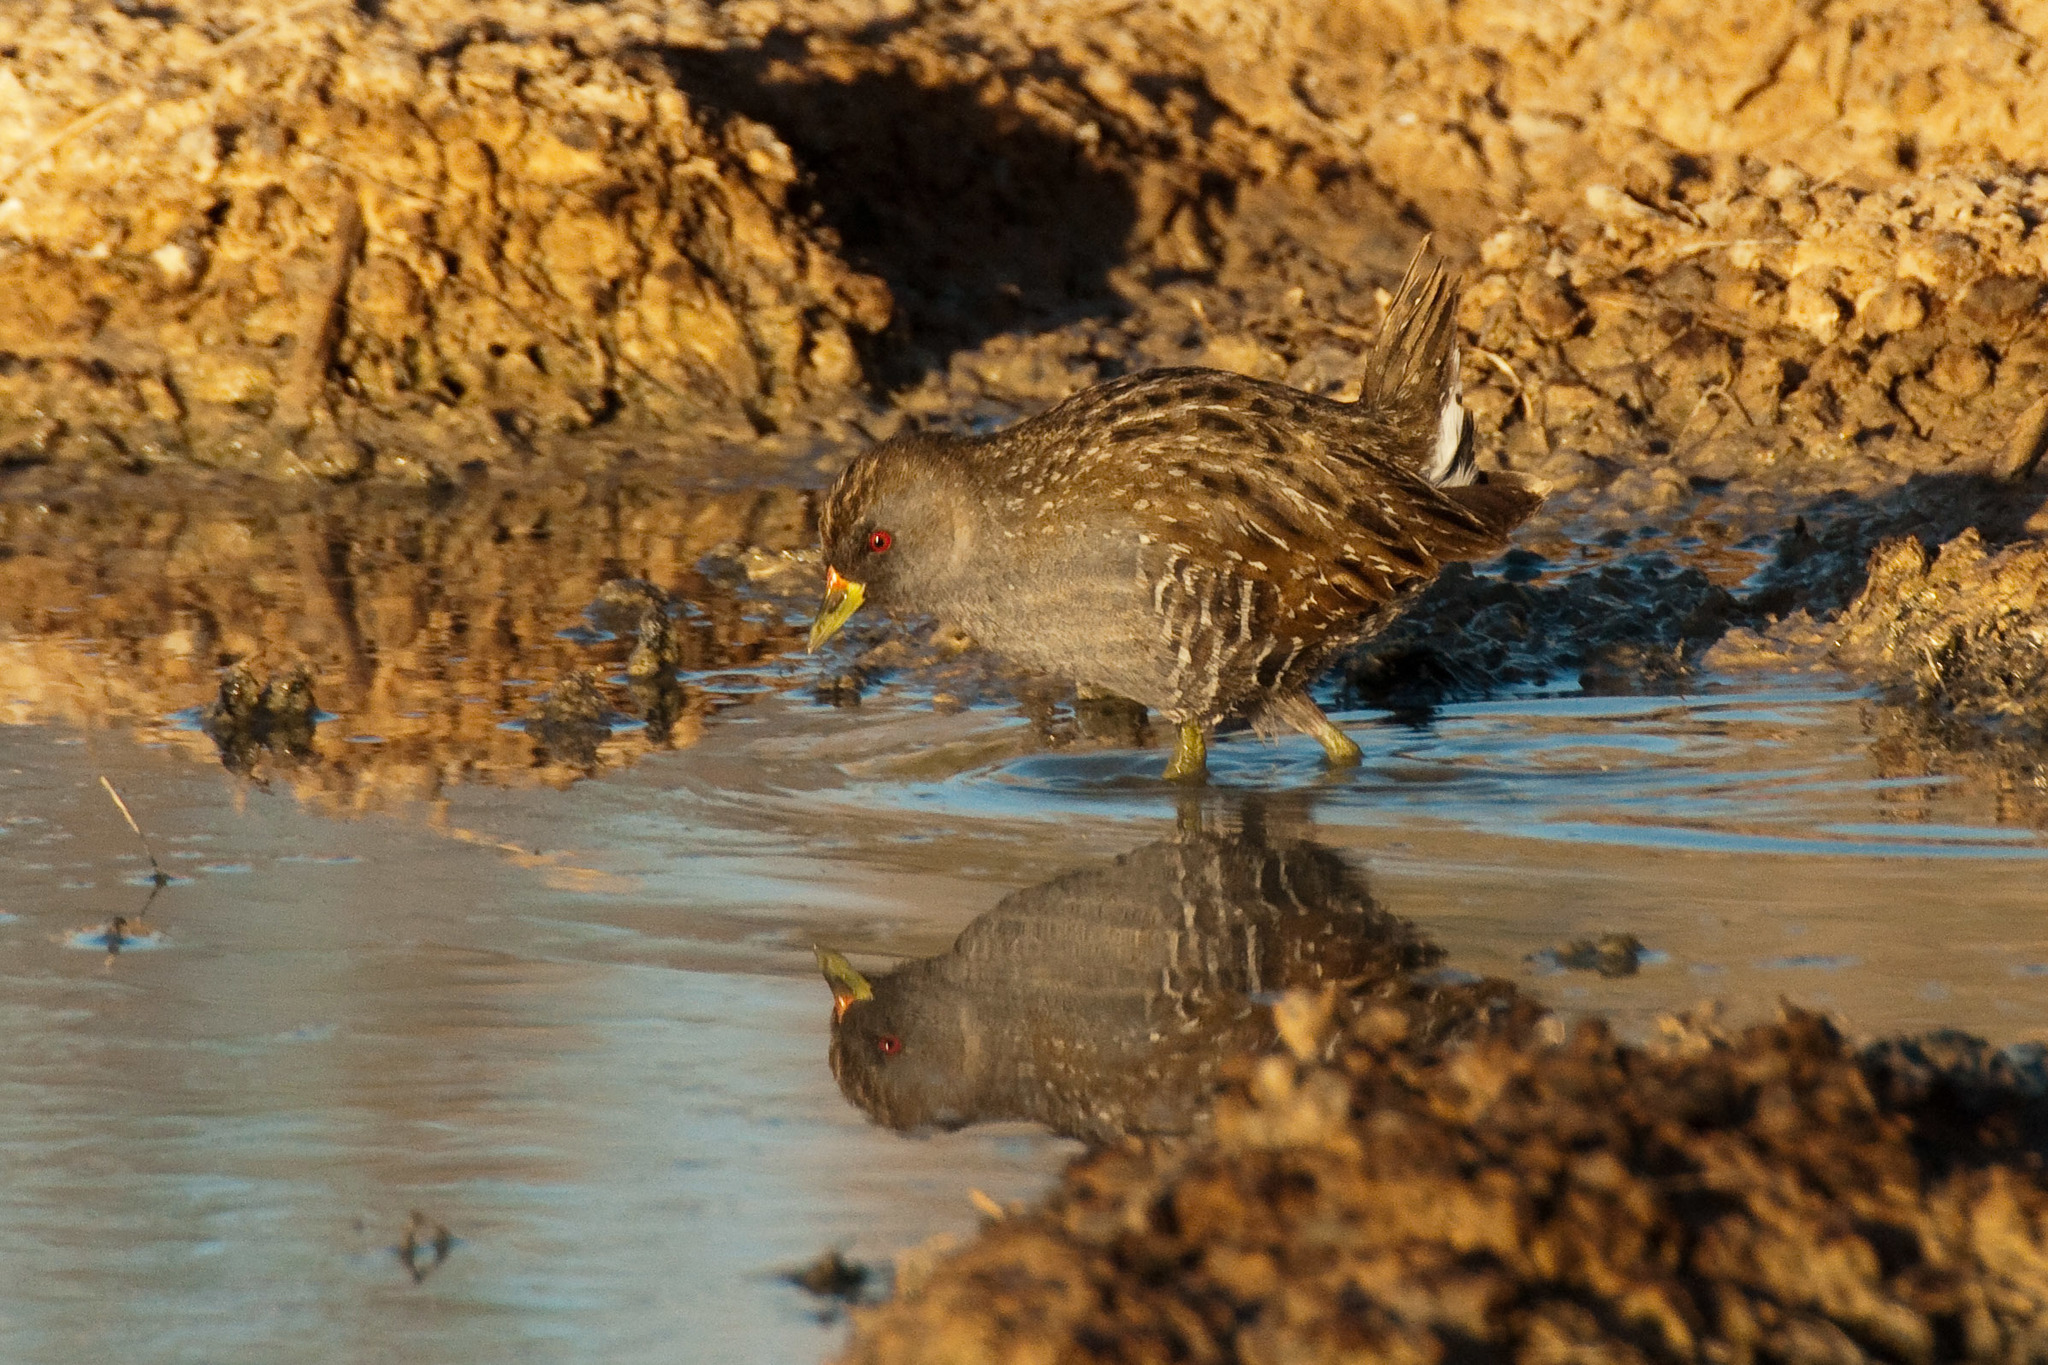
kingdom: Animalia
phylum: Chordata
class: Aves
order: Gruiformes
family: Rallidae
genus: Porzana
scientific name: Porzana fluminea
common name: Australian crake
